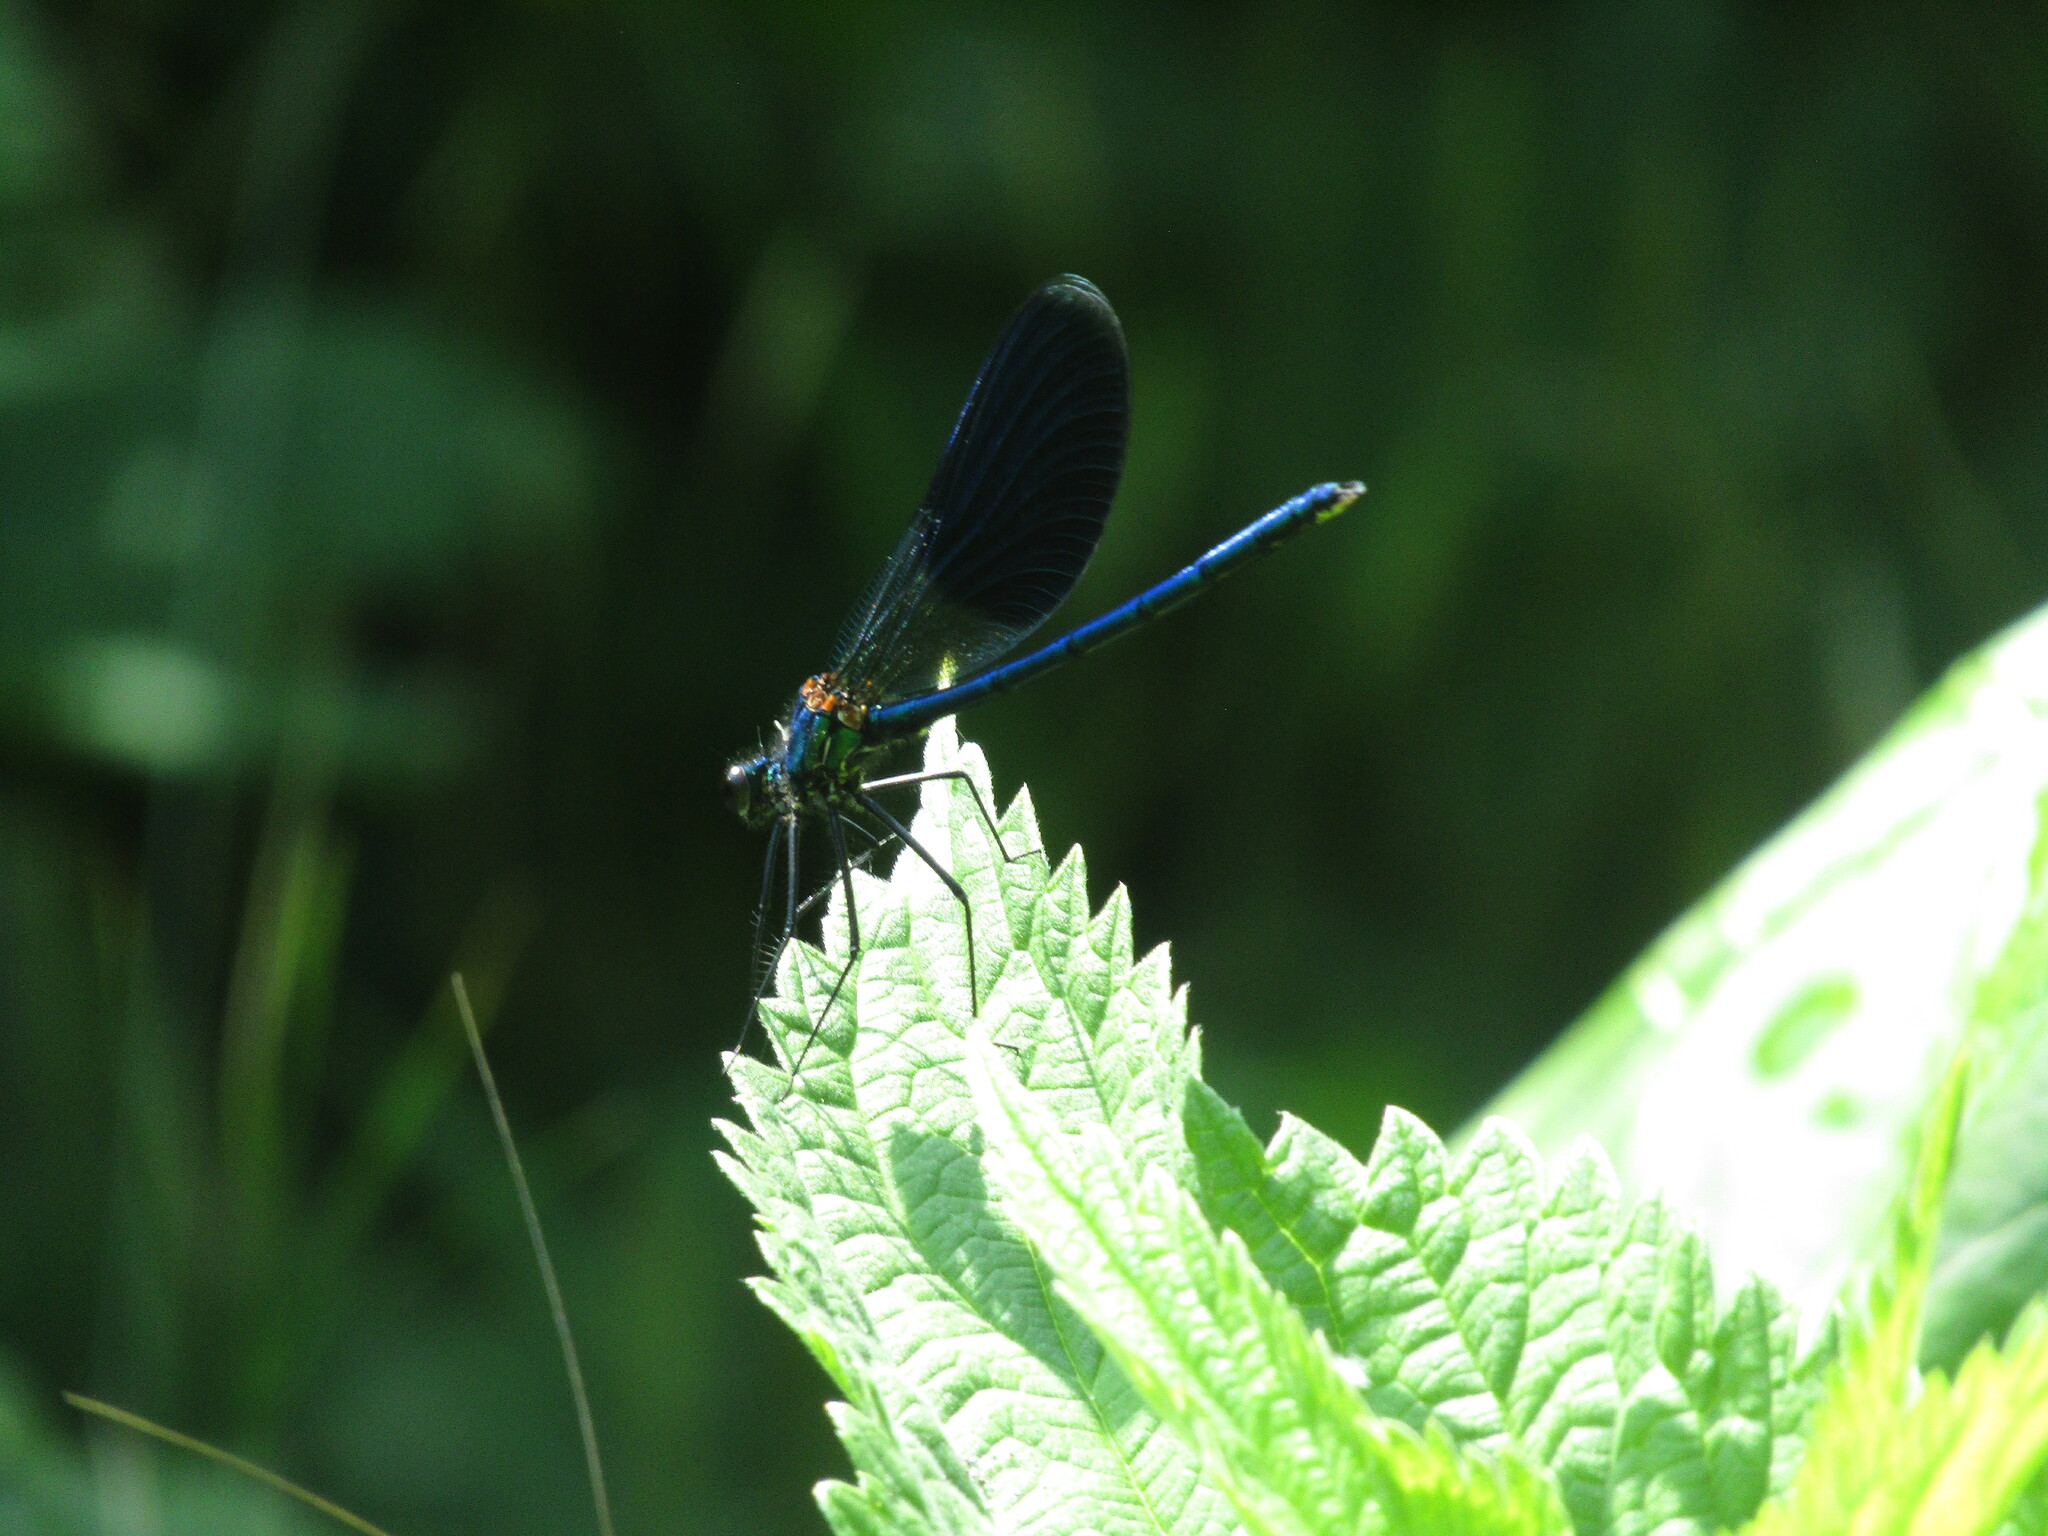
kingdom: Animalia
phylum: Arthropoda
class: Insecta
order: Odonata
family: Calopterygidae
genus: Calopteryx
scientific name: Calopteryx splendens
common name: Banded demoiselle
